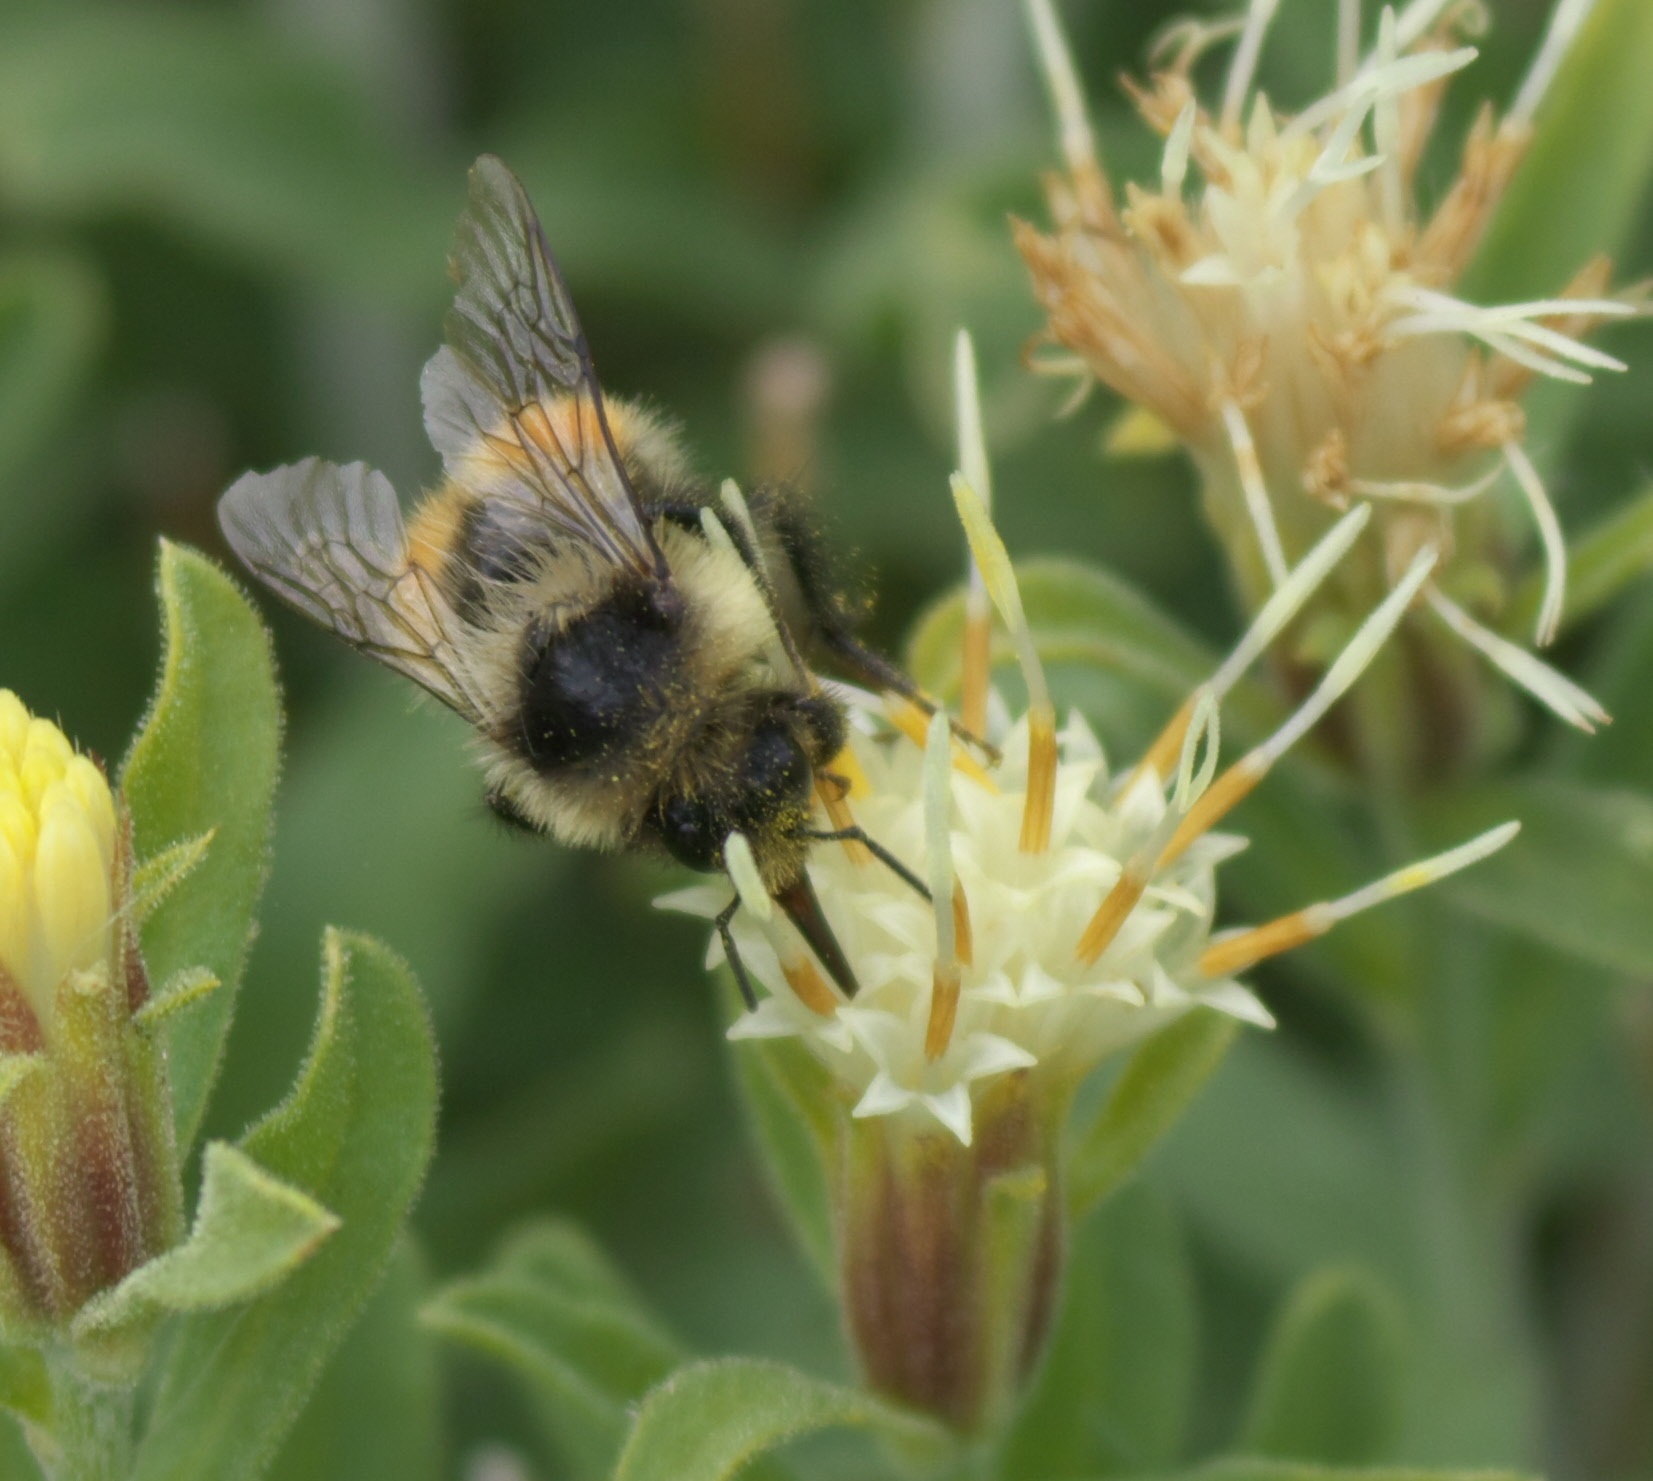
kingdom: Animalia
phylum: Arthropoda
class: Insecta
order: Hymenoptera
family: Apidae
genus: Bombus
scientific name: Bombus flavifrons
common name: Yellow head bumble bee
